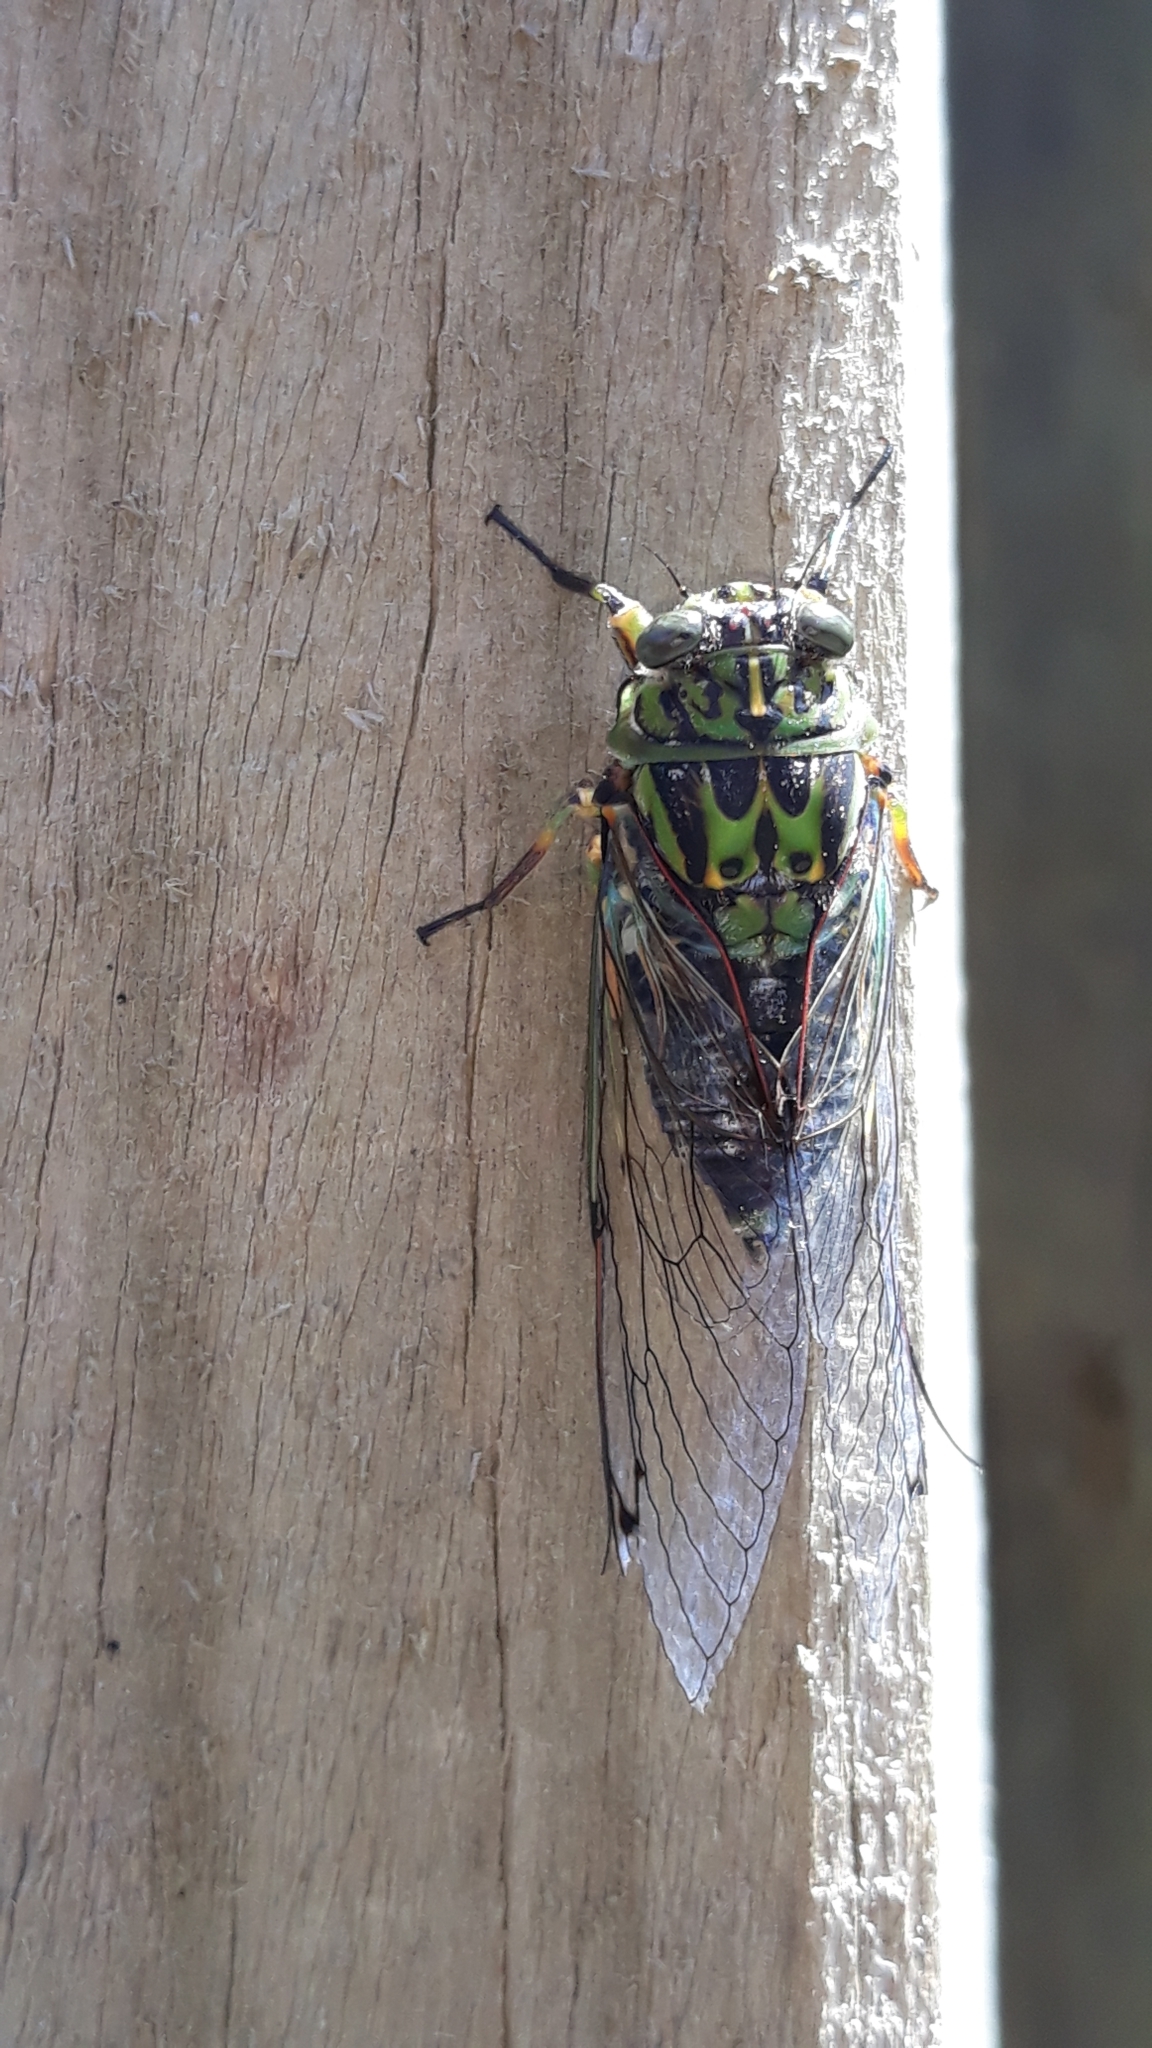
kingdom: Animalia
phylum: Arthropoda
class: Insecta
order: Hemiptera
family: Cicadidae
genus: Amphipsalta
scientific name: Amphipsalta zelandica
